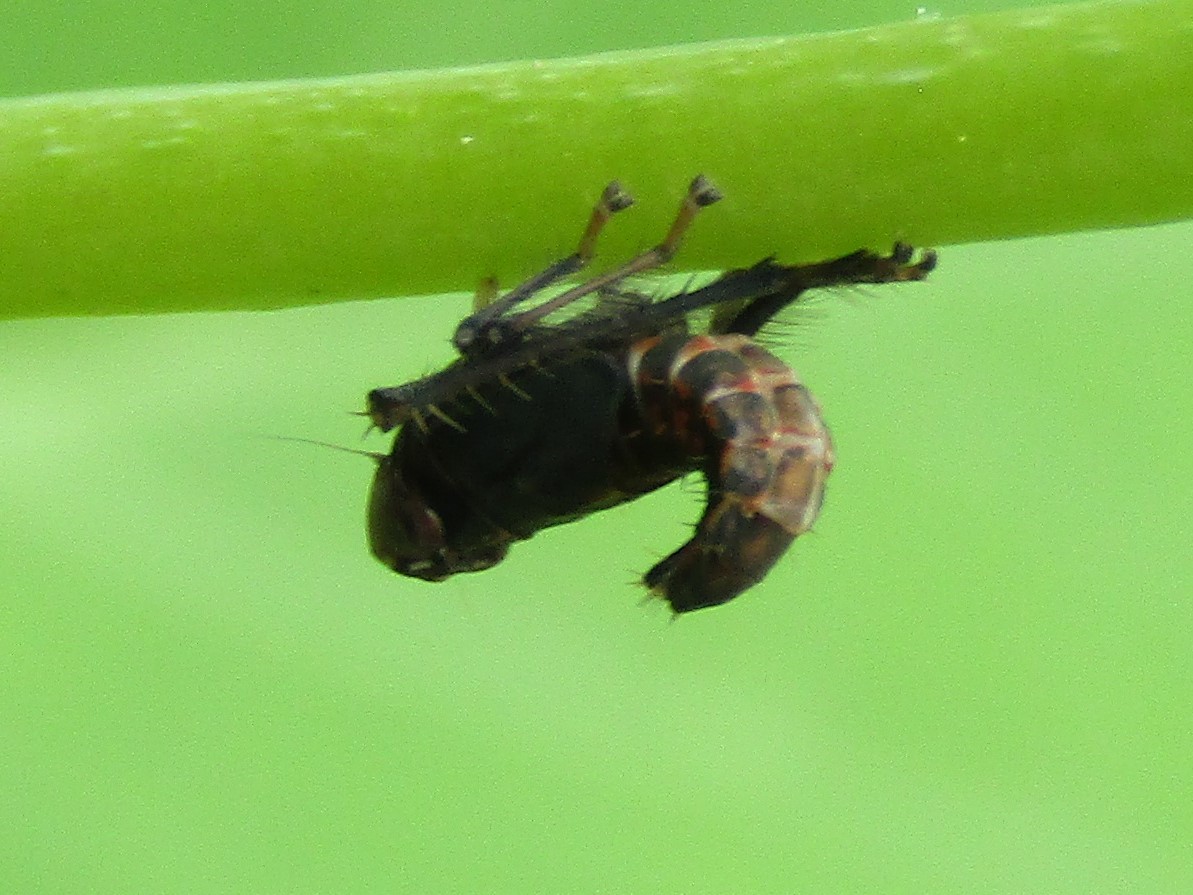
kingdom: Animalia
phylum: Arthropoda
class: Insecta
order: Hemiptera
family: Cicadellidae
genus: Jikradia
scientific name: Jikradia olitoria
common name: Coppery leafhopper
